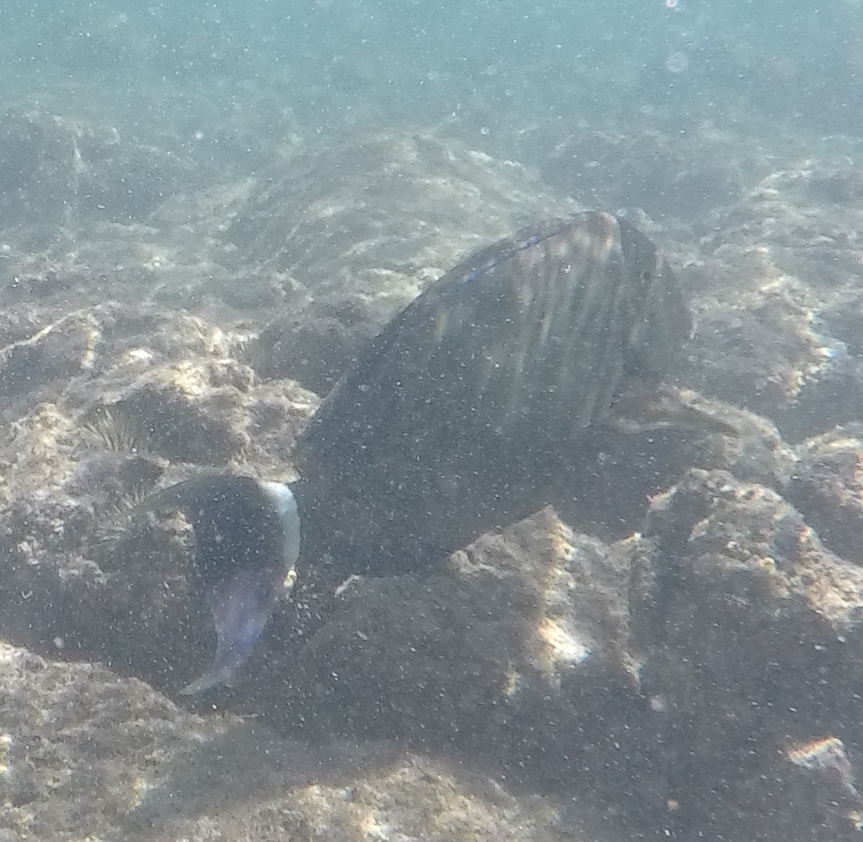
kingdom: Animalia
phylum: Chordata
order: Perciformes
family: Acanthuridae
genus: Acanthurus
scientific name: Acanthurus blochii
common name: Blue-banded pualu
